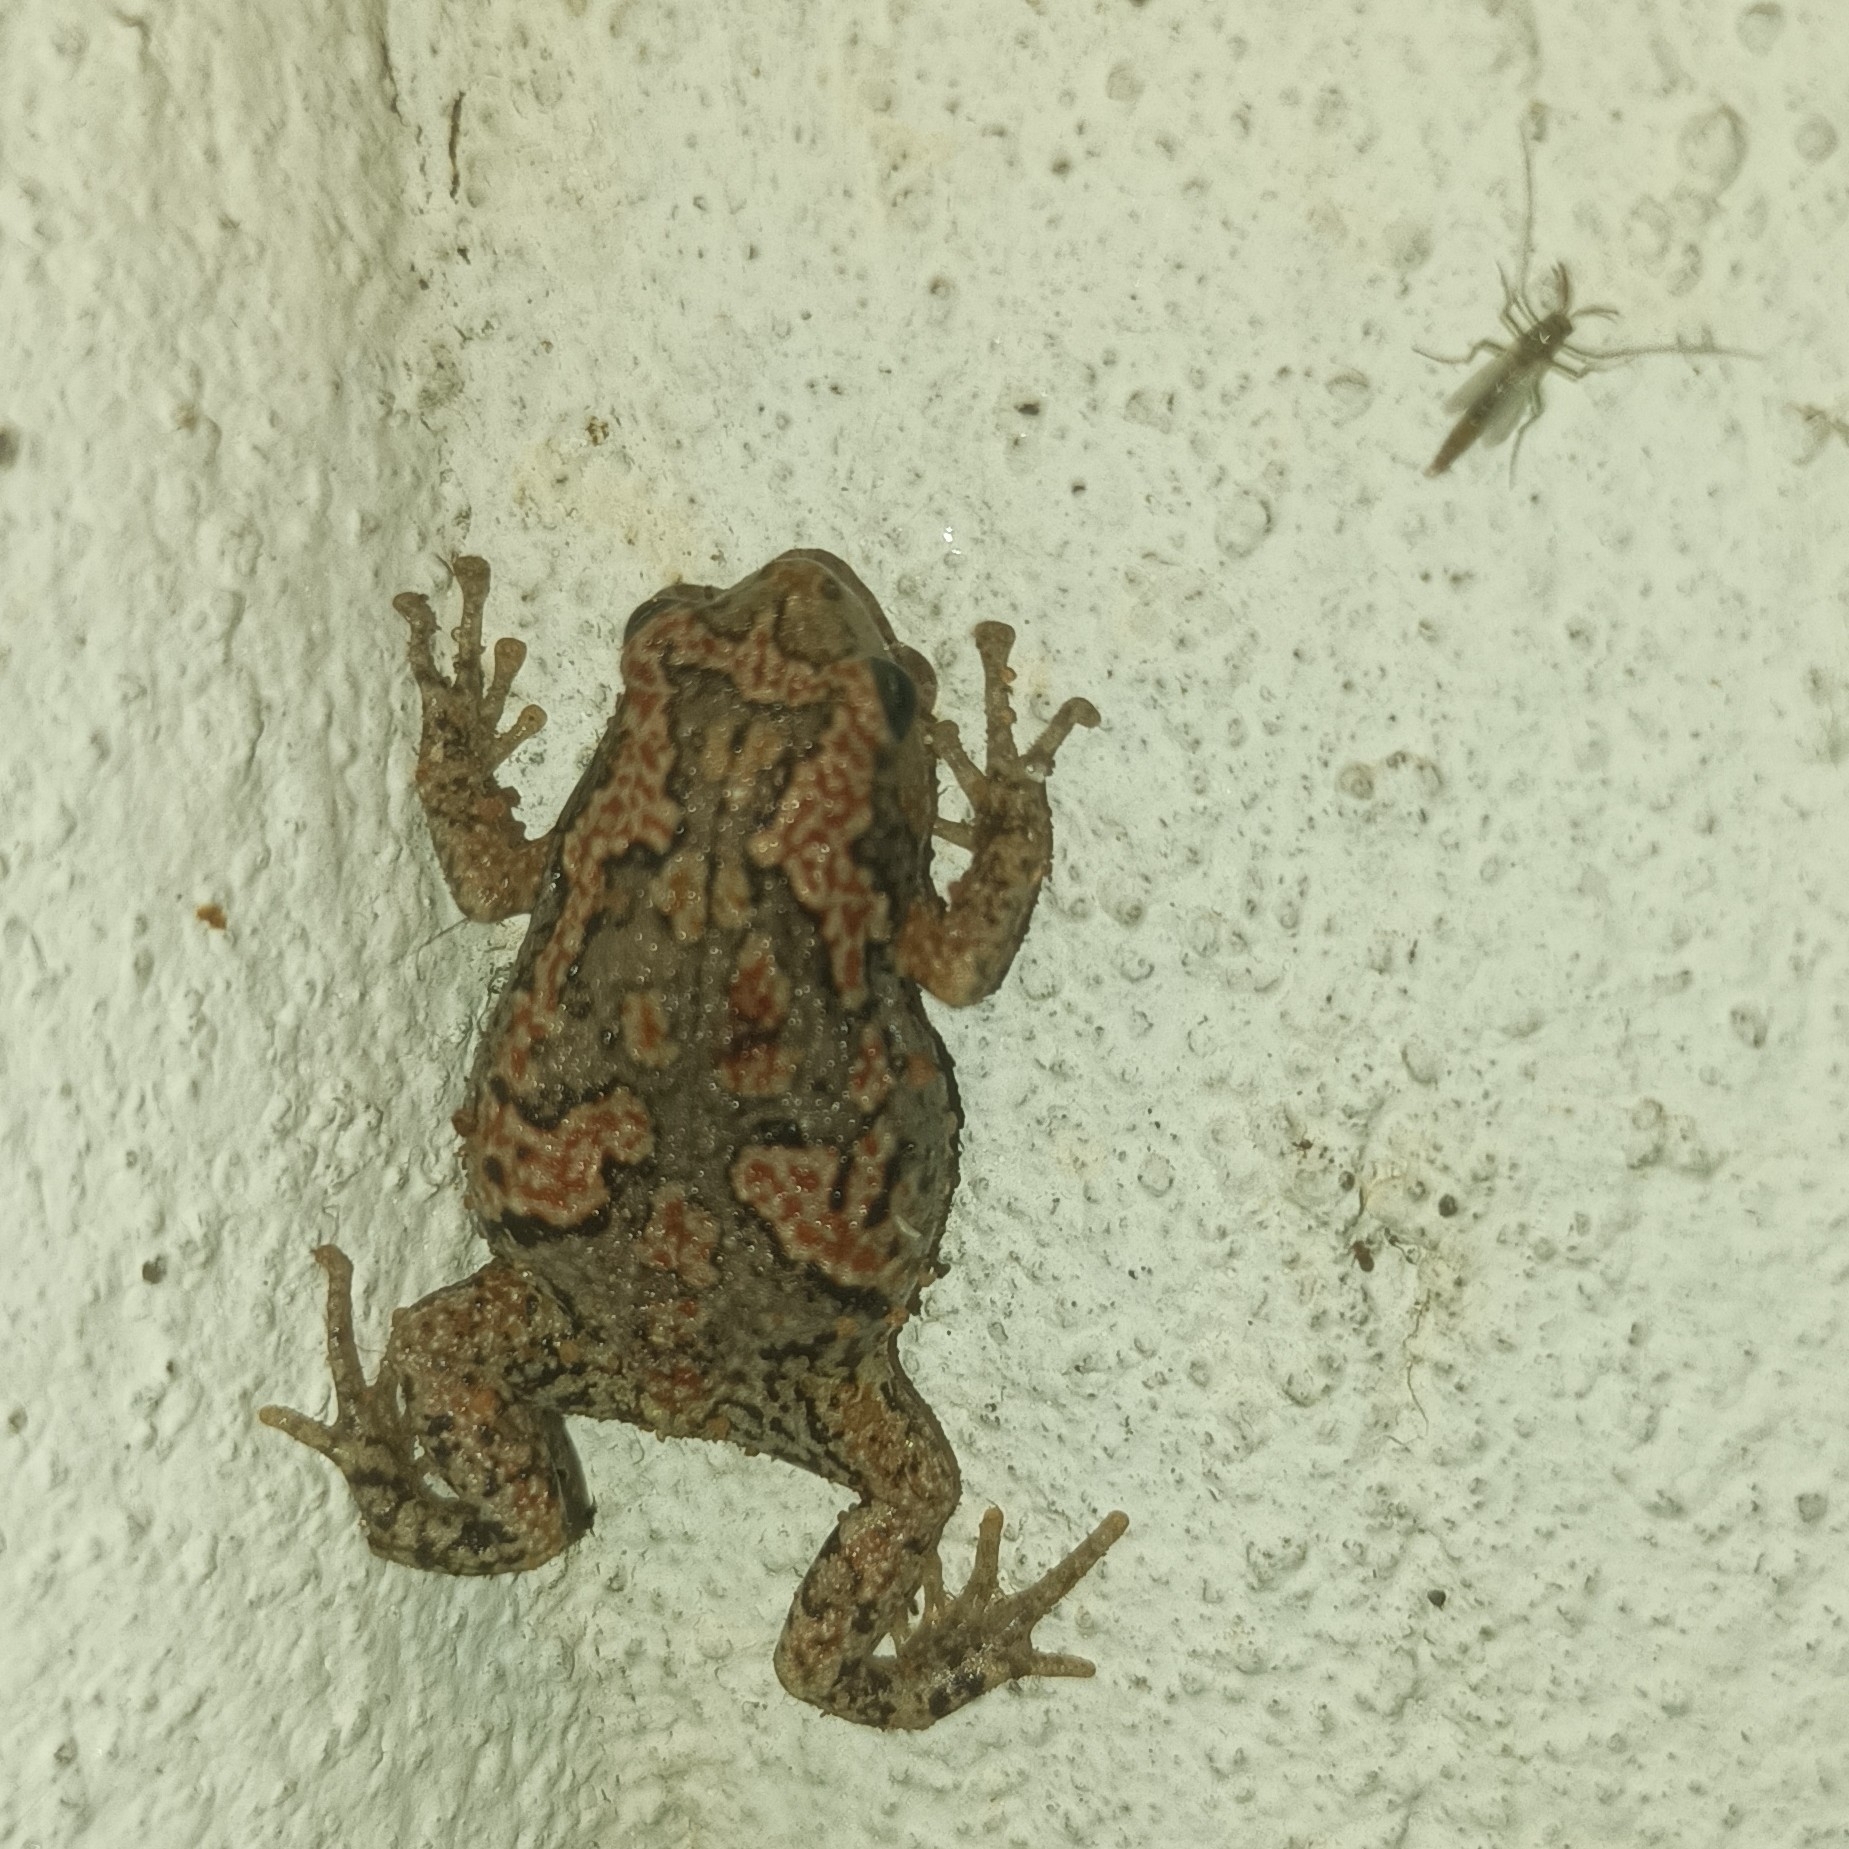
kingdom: Animalia
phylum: Chordata
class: Amphibia
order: Anura
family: Microhylidae
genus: Uperodon
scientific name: Uperodon taprobanicus
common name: Ceylon kaloula
